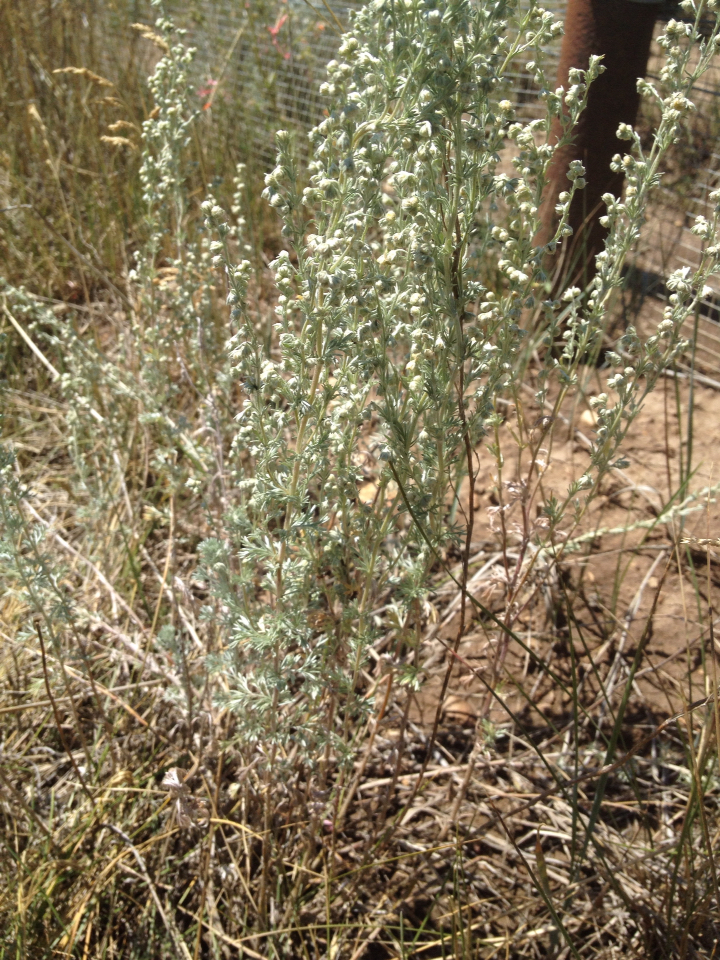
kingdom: Plantae
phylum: Tracheophyta
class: Magnoliopsida
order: Asterales
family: Asteraceae
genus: Artemisia
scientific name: Artemisia frigida
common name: Prairie sagewort
